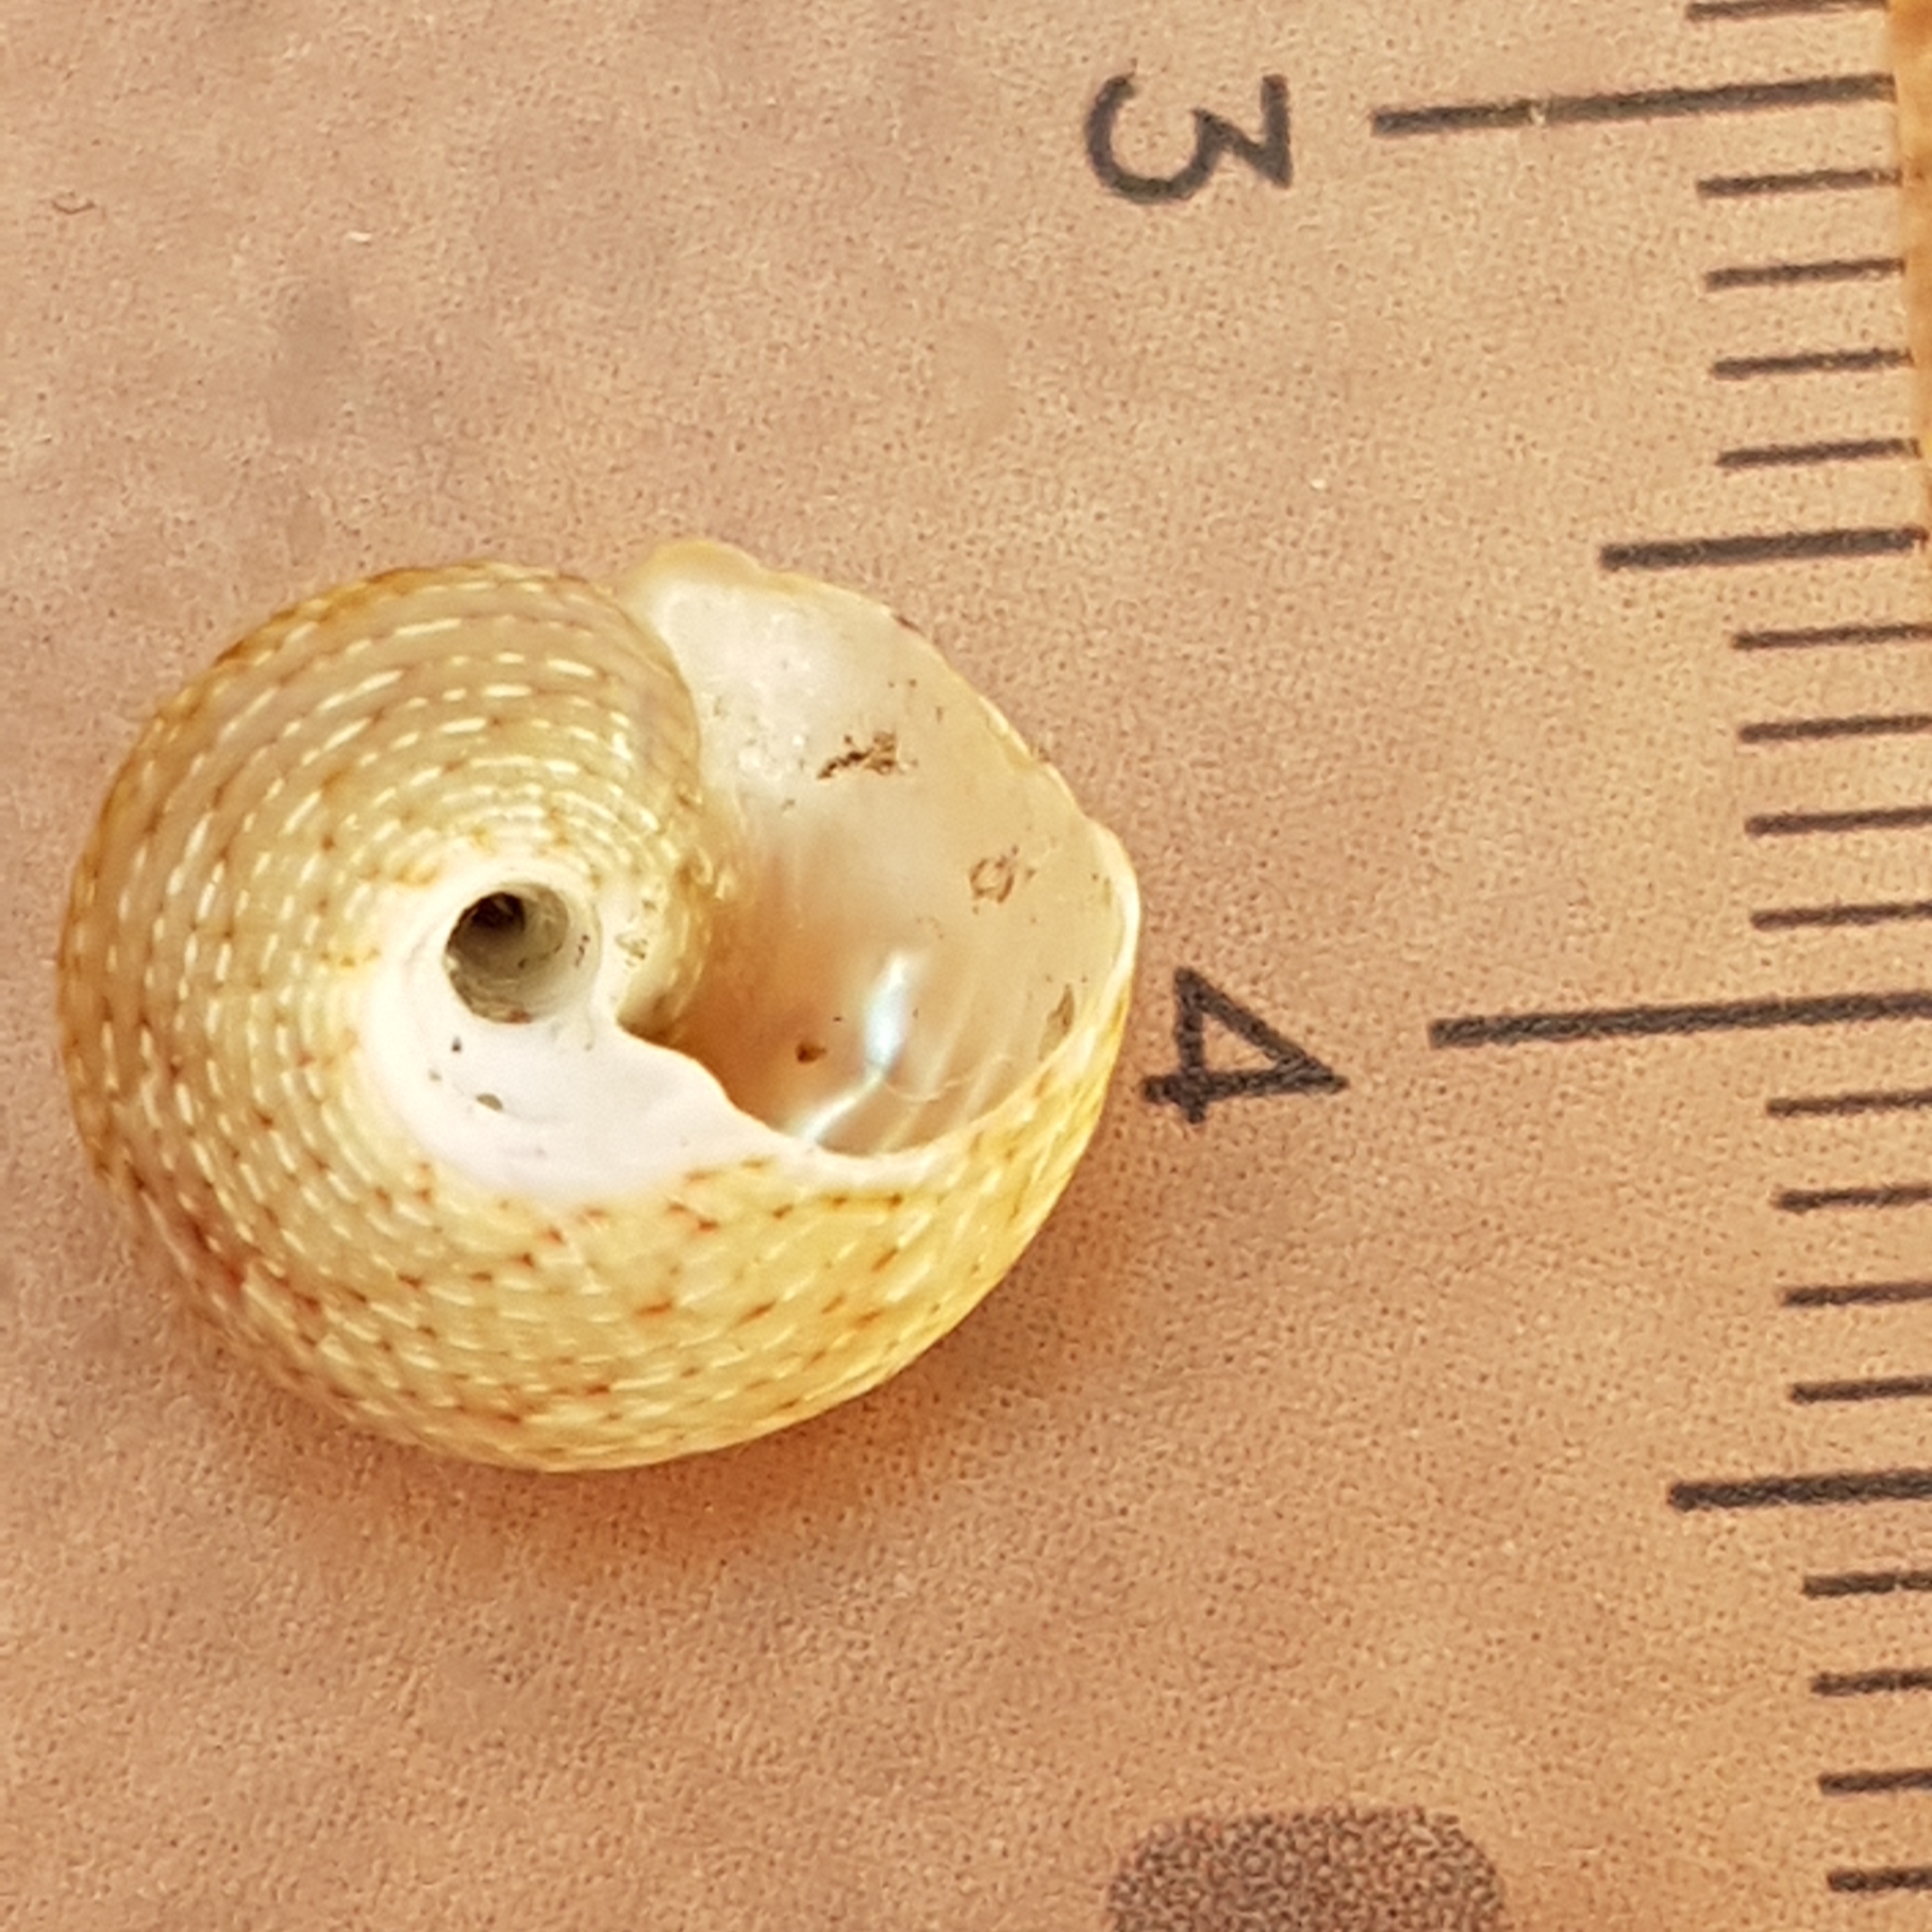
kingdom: Animalia
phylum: Mollusca
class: Gastropoda
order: Trochida
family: Trochidae
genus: Gibbula
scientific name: Gibbula ardens
